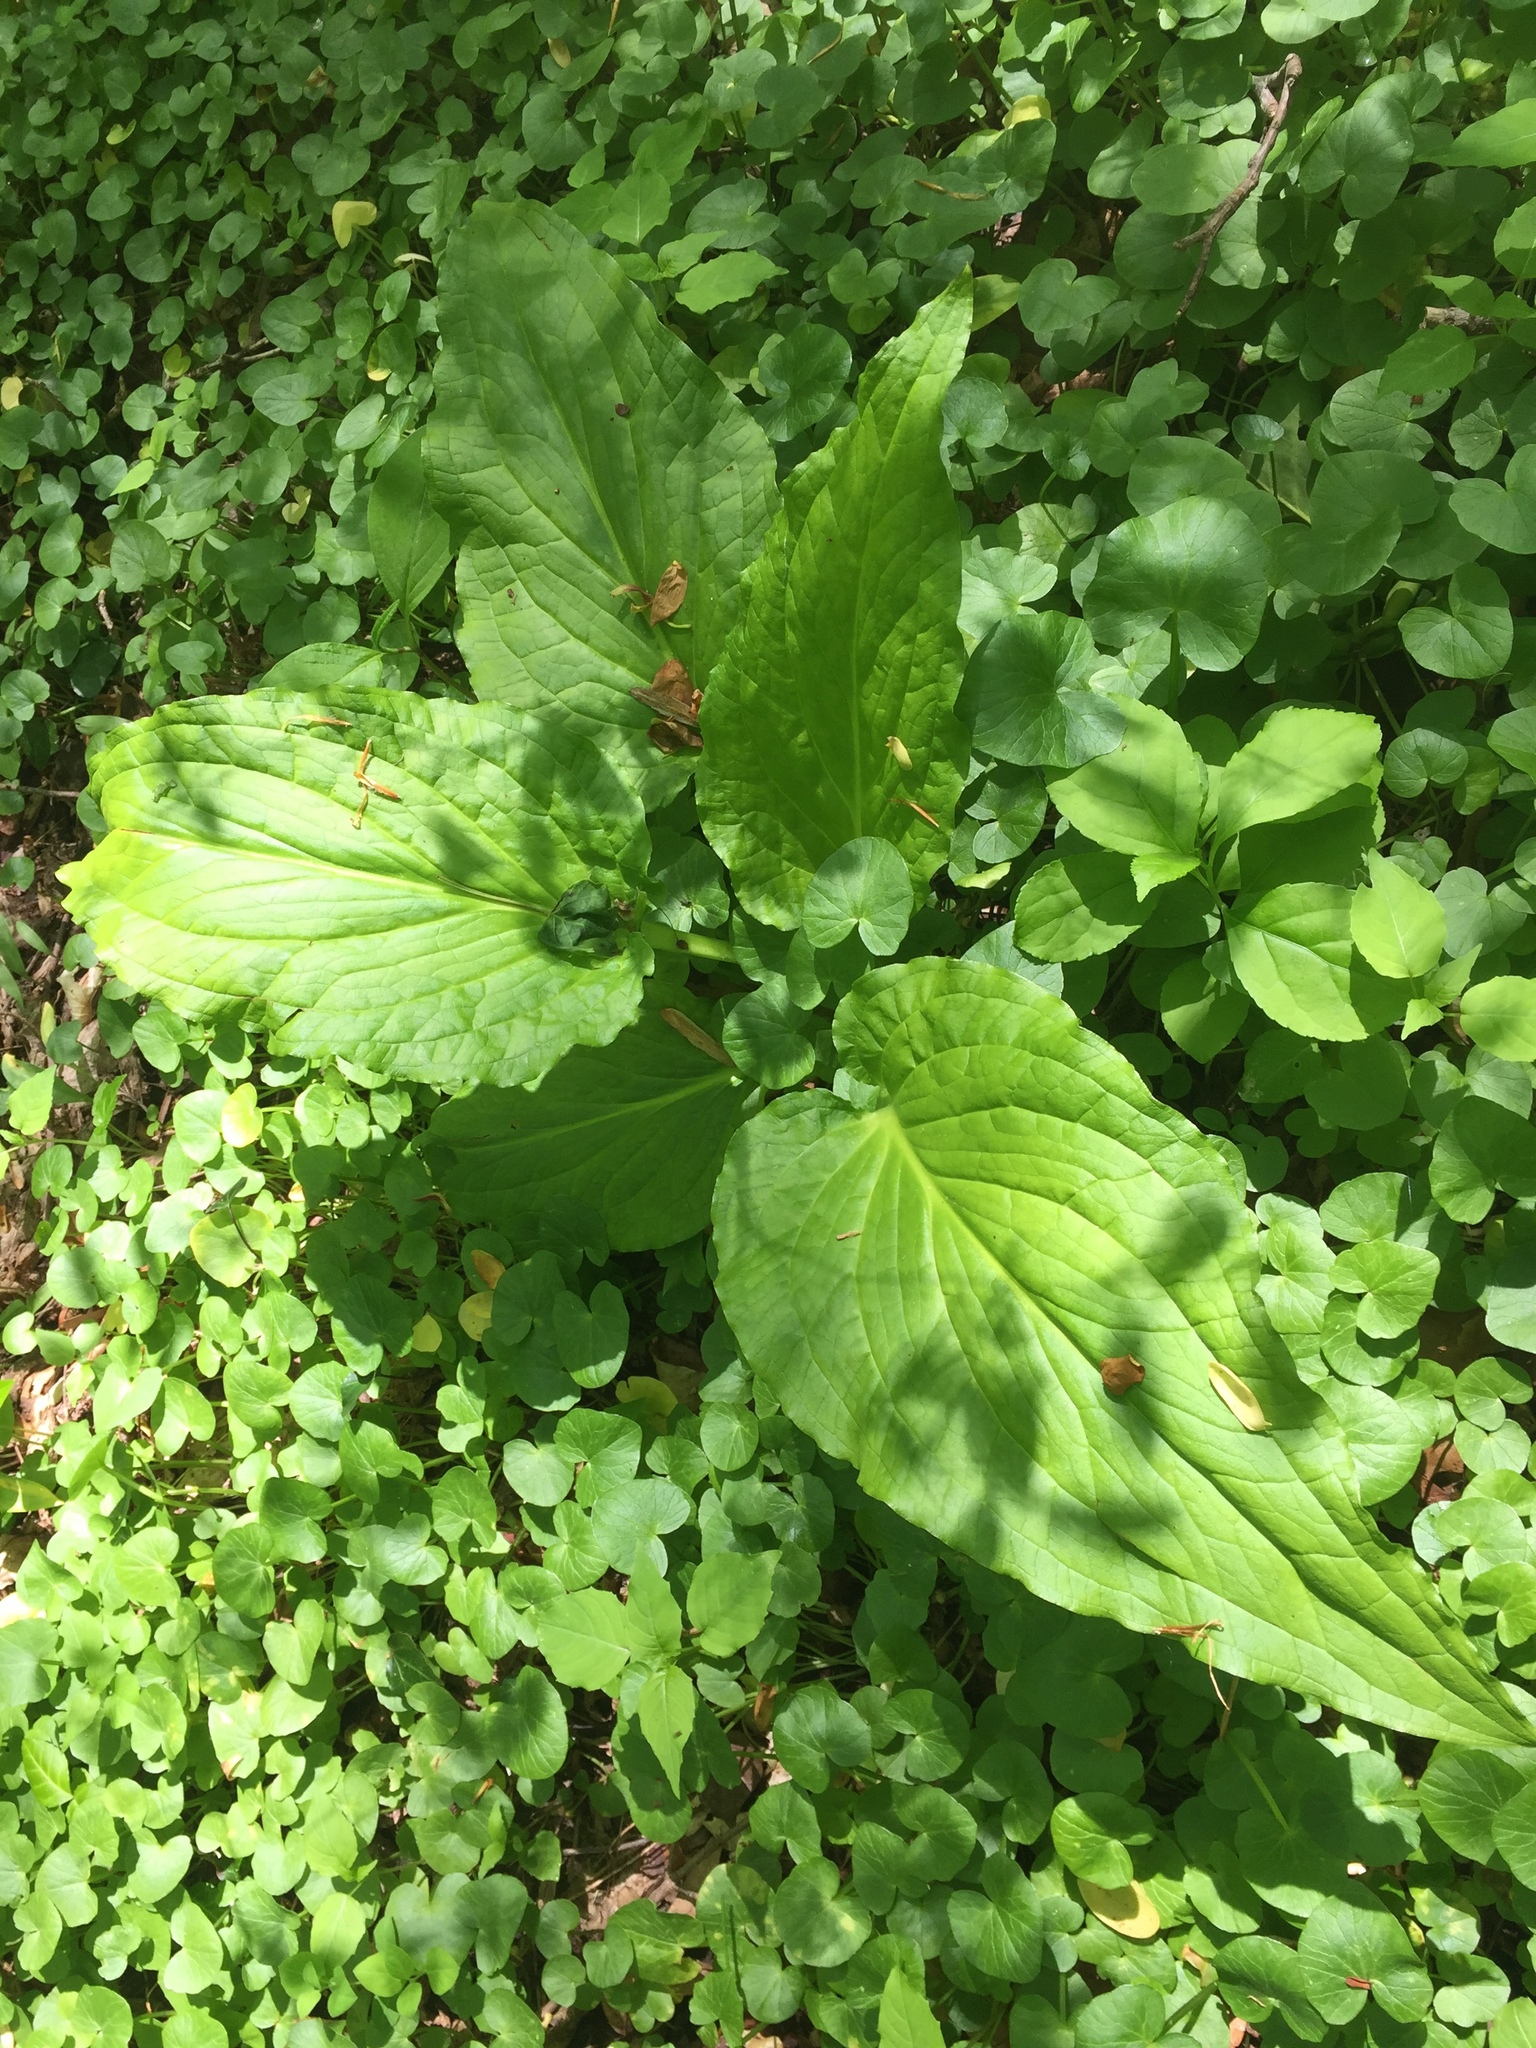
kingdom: Plantae
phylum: Tracheophyta
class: Liliopsida
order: Alismatales
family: Araceae
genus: Symplocarpus
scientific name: Symplocarpus foetidus
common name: Eastern skunk cabbage
